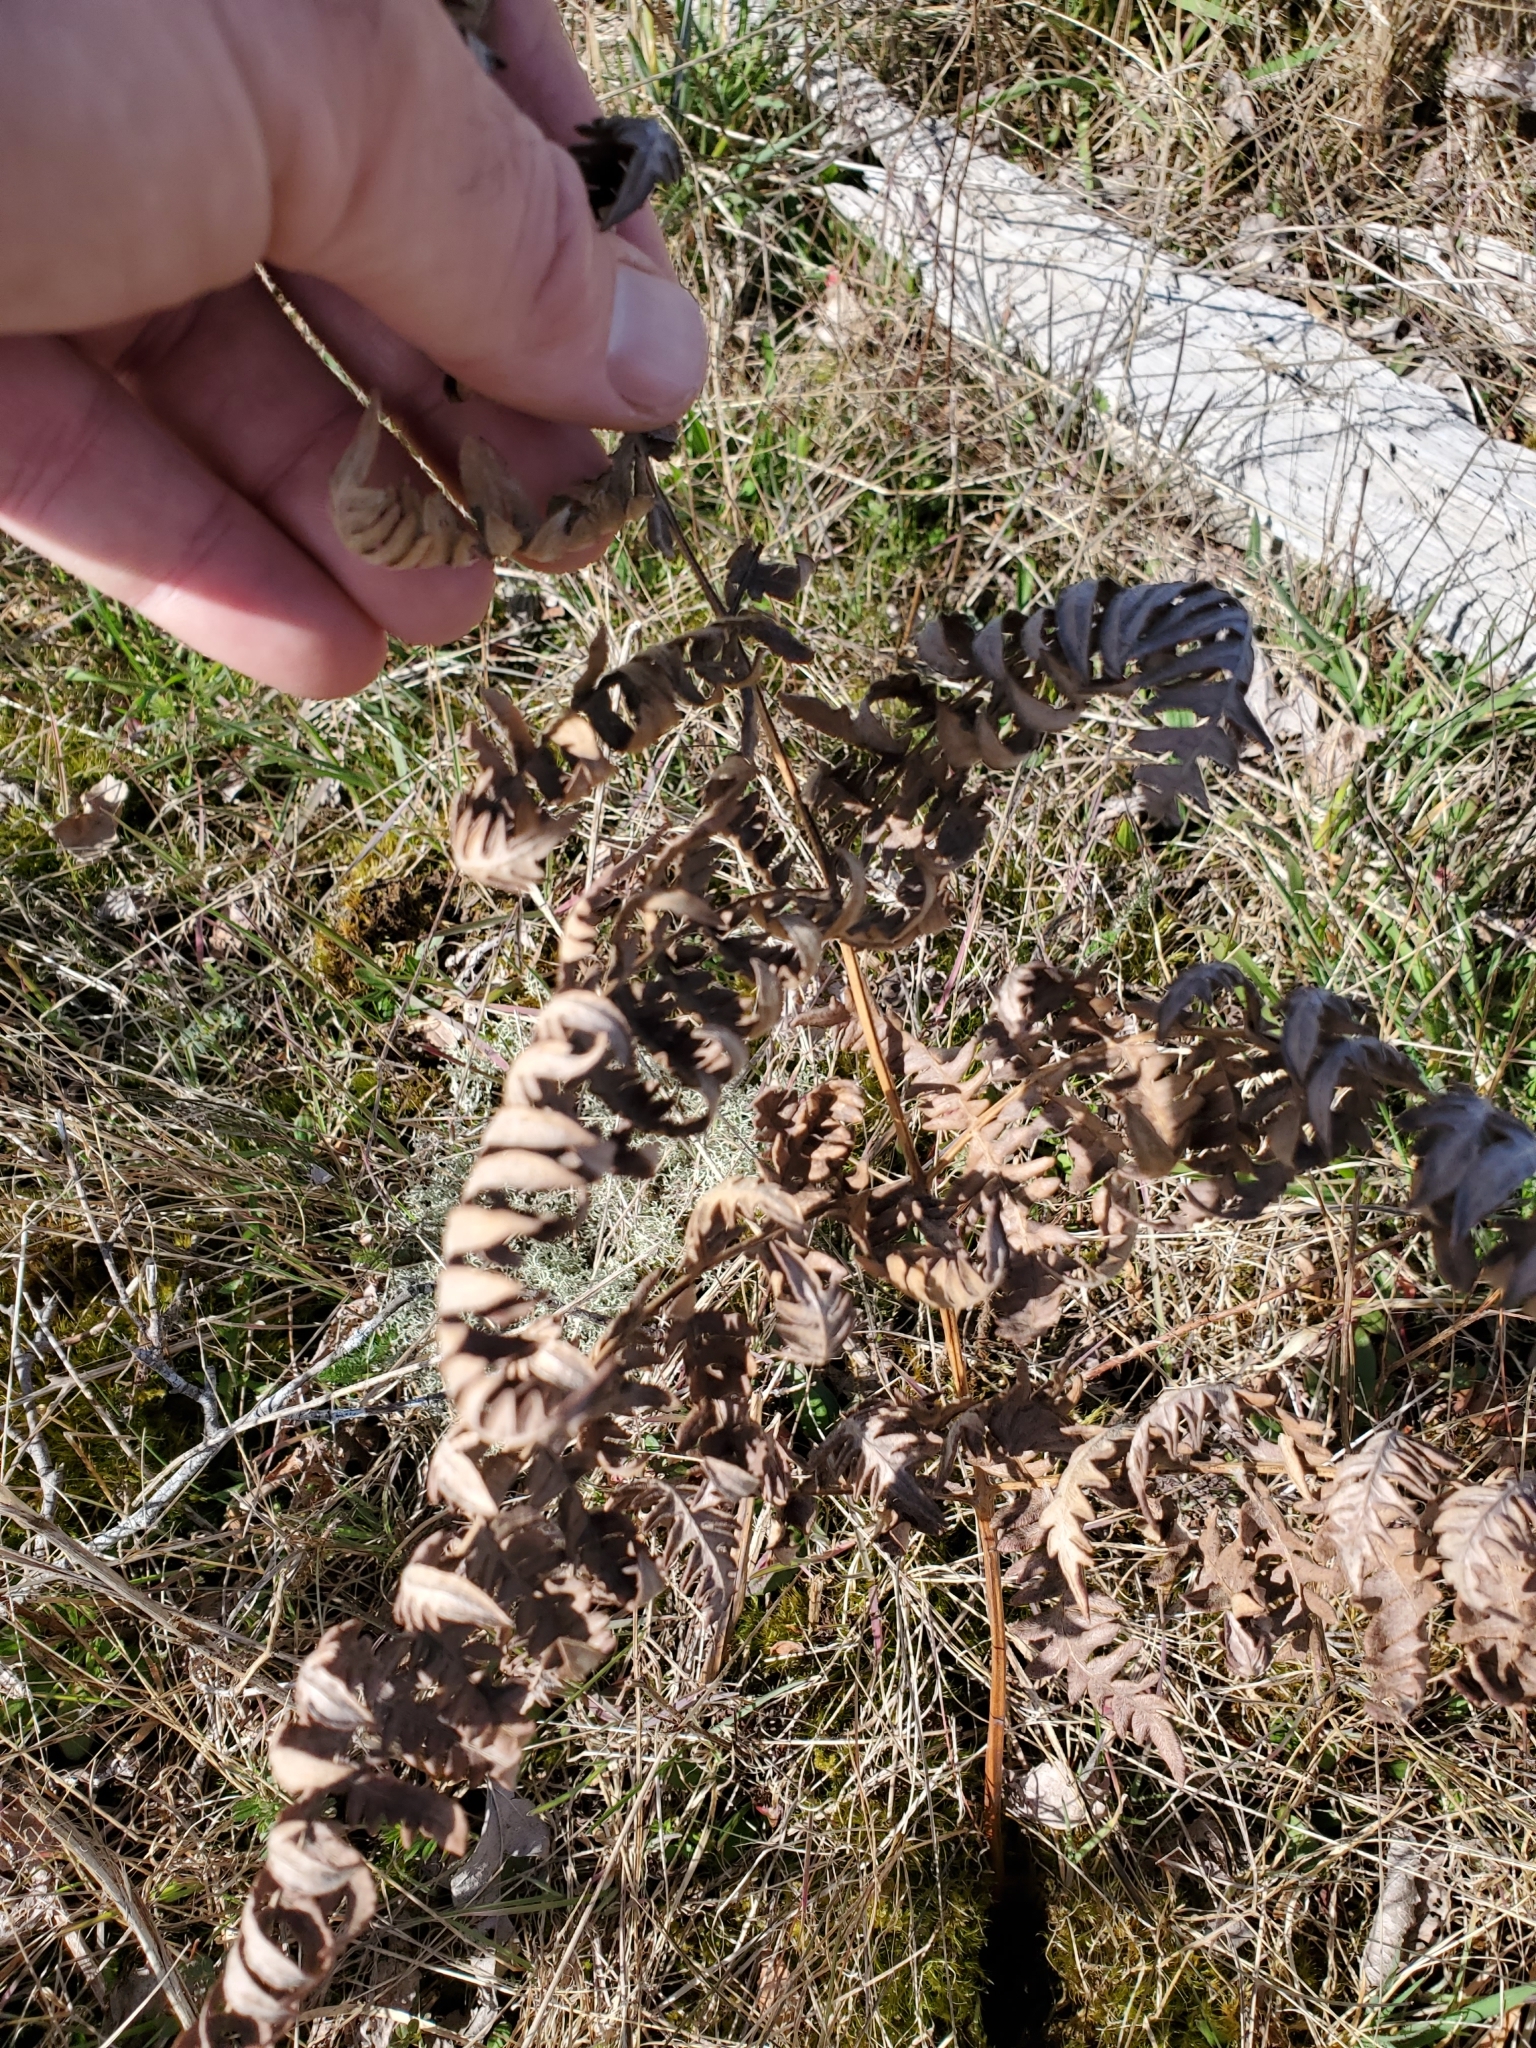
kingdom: Plantae
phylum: Tracheophyta
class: Polypodiopsida
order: Polypodiales
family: Dennstaedtiaceae
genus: Pteridium
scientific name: Pteridium aquilinum
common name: Bracken
